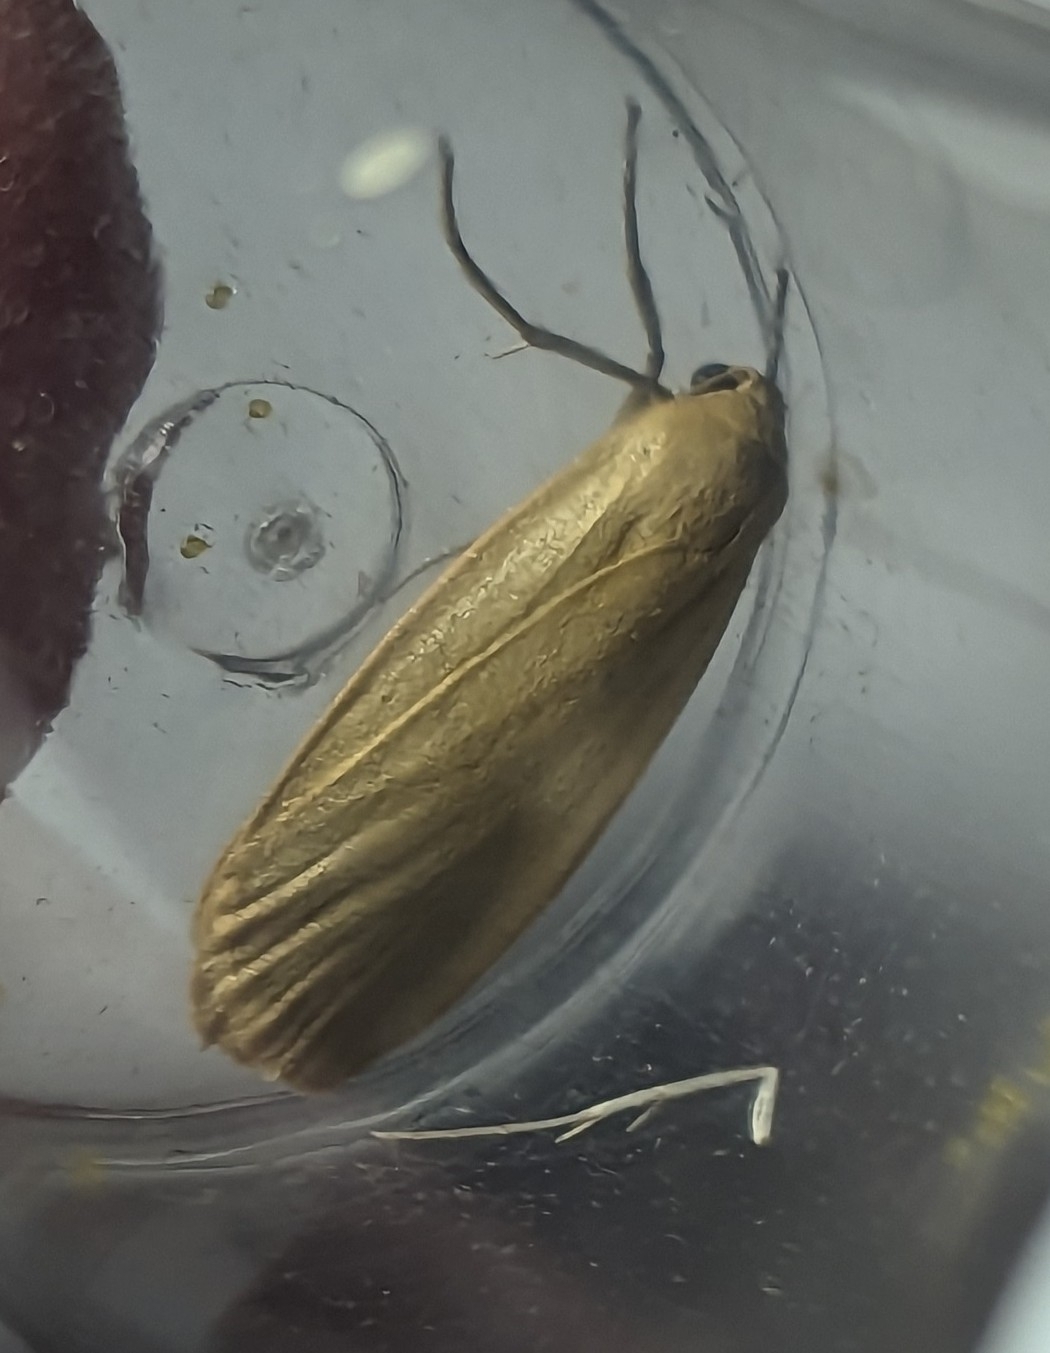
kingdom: Animalia
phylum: Arthropoda
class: Insecta
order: Lepidoptera
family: Erebidae
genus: Collita
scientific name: Collita griseola
